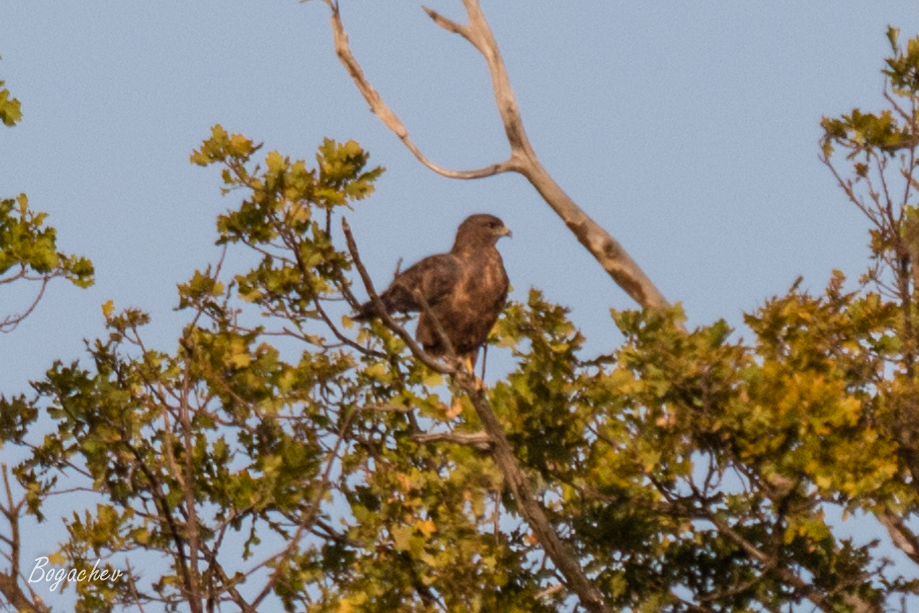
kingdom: Animalia
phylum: Chordata
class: Aves
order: Accipitriformes
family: Accipitridae
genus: Buteo
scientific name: Buteo buteo
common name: Common buzzard
